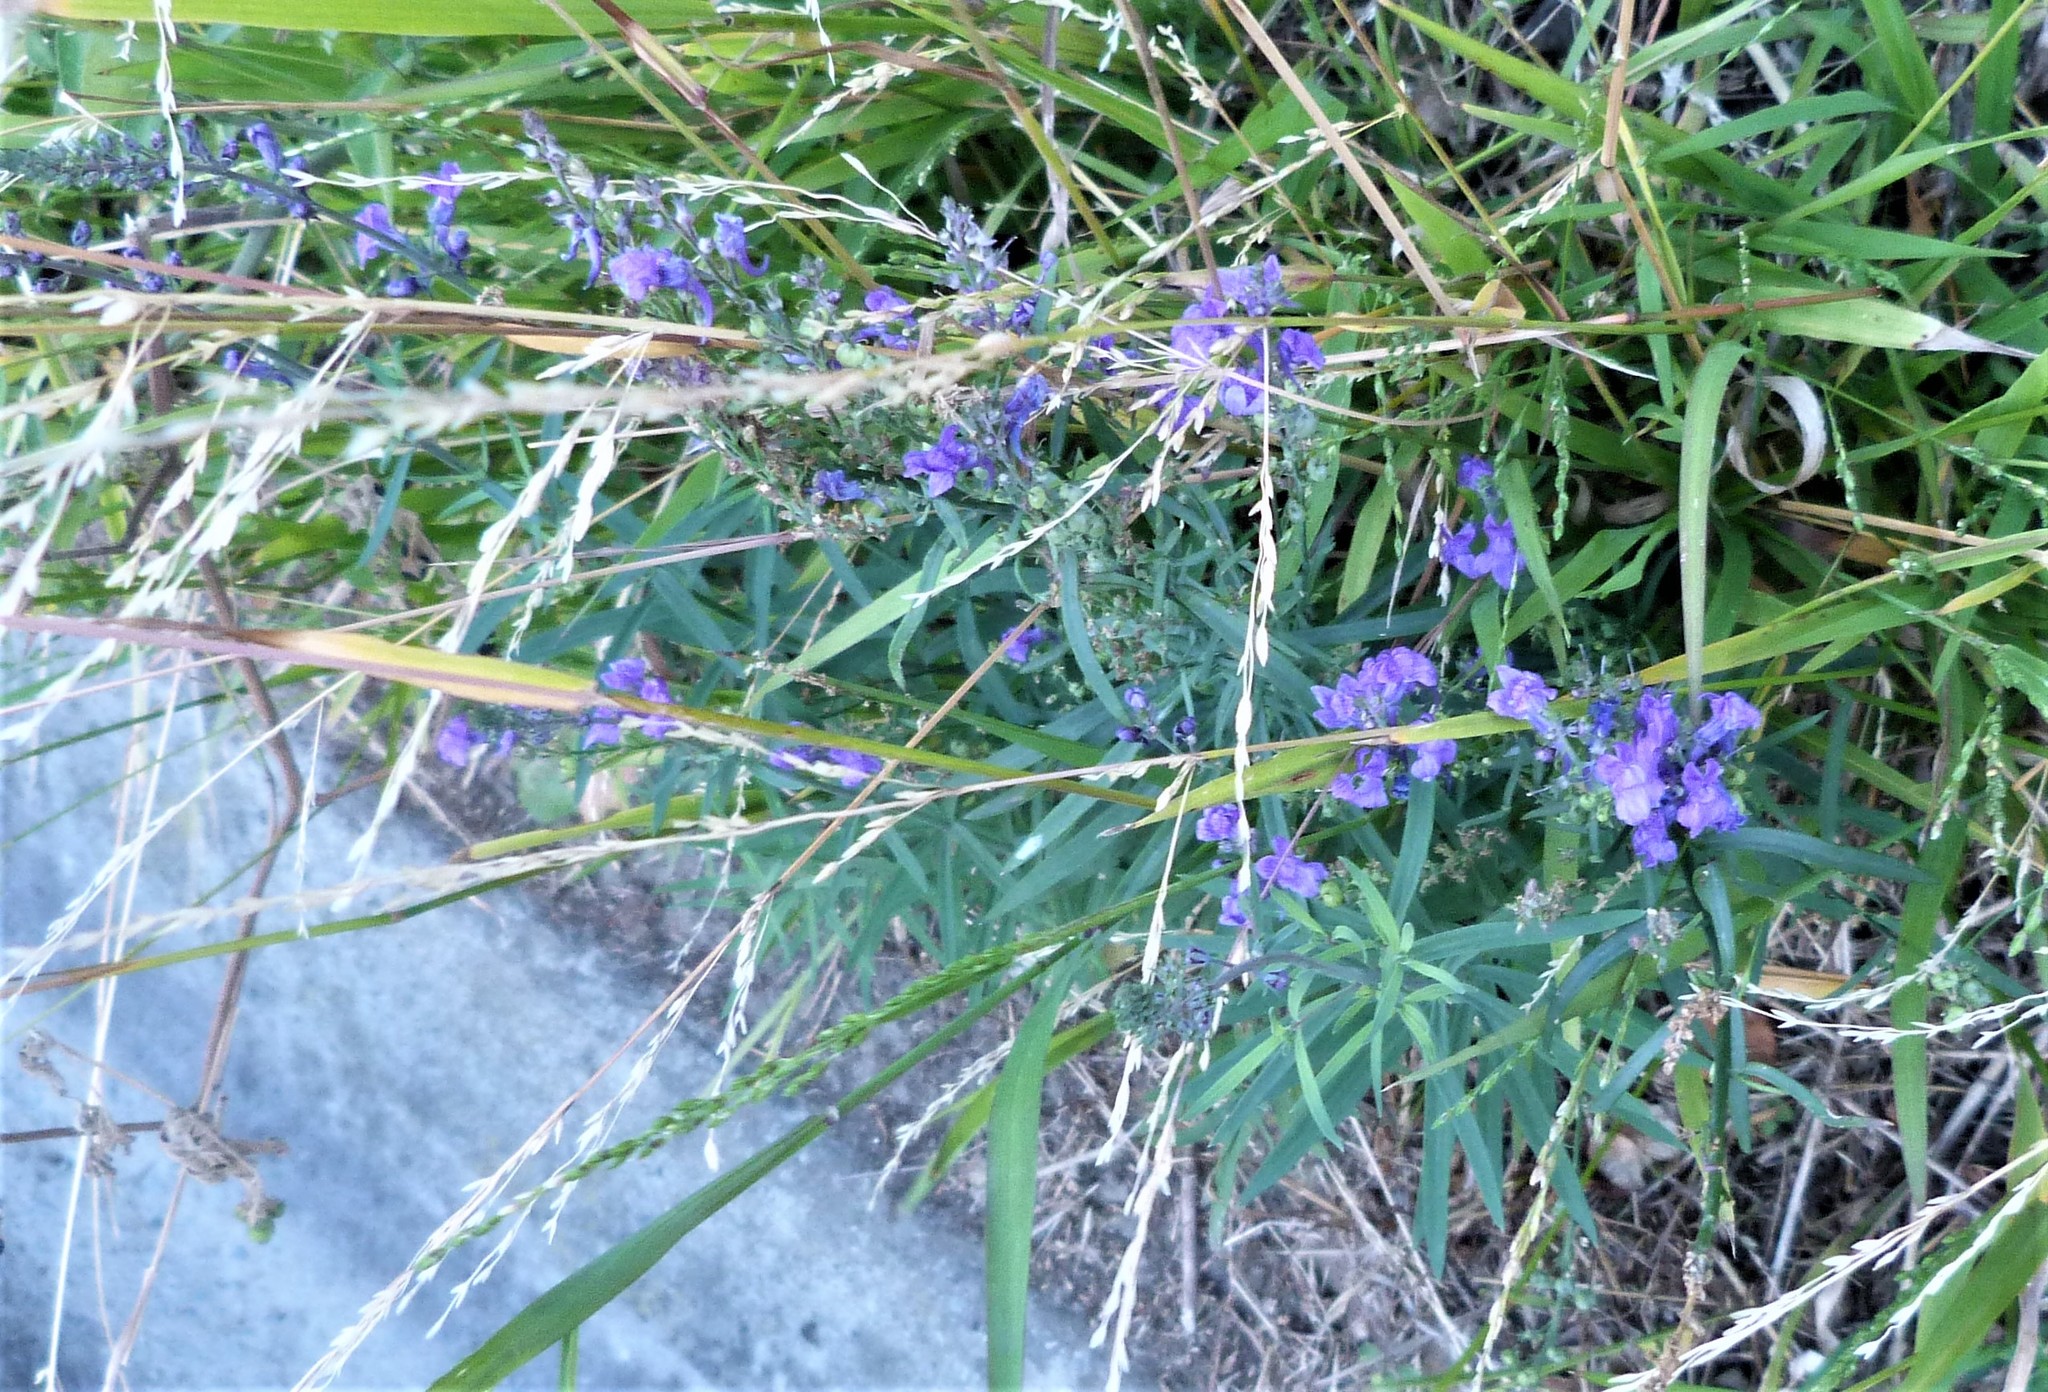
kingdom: Plantae
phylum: Tracheophyta
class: Magnoliopsida
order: Lamiales
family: Plantaginaceae
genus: Linaria
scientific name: Linaria purpurea
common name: Purple toadflax
